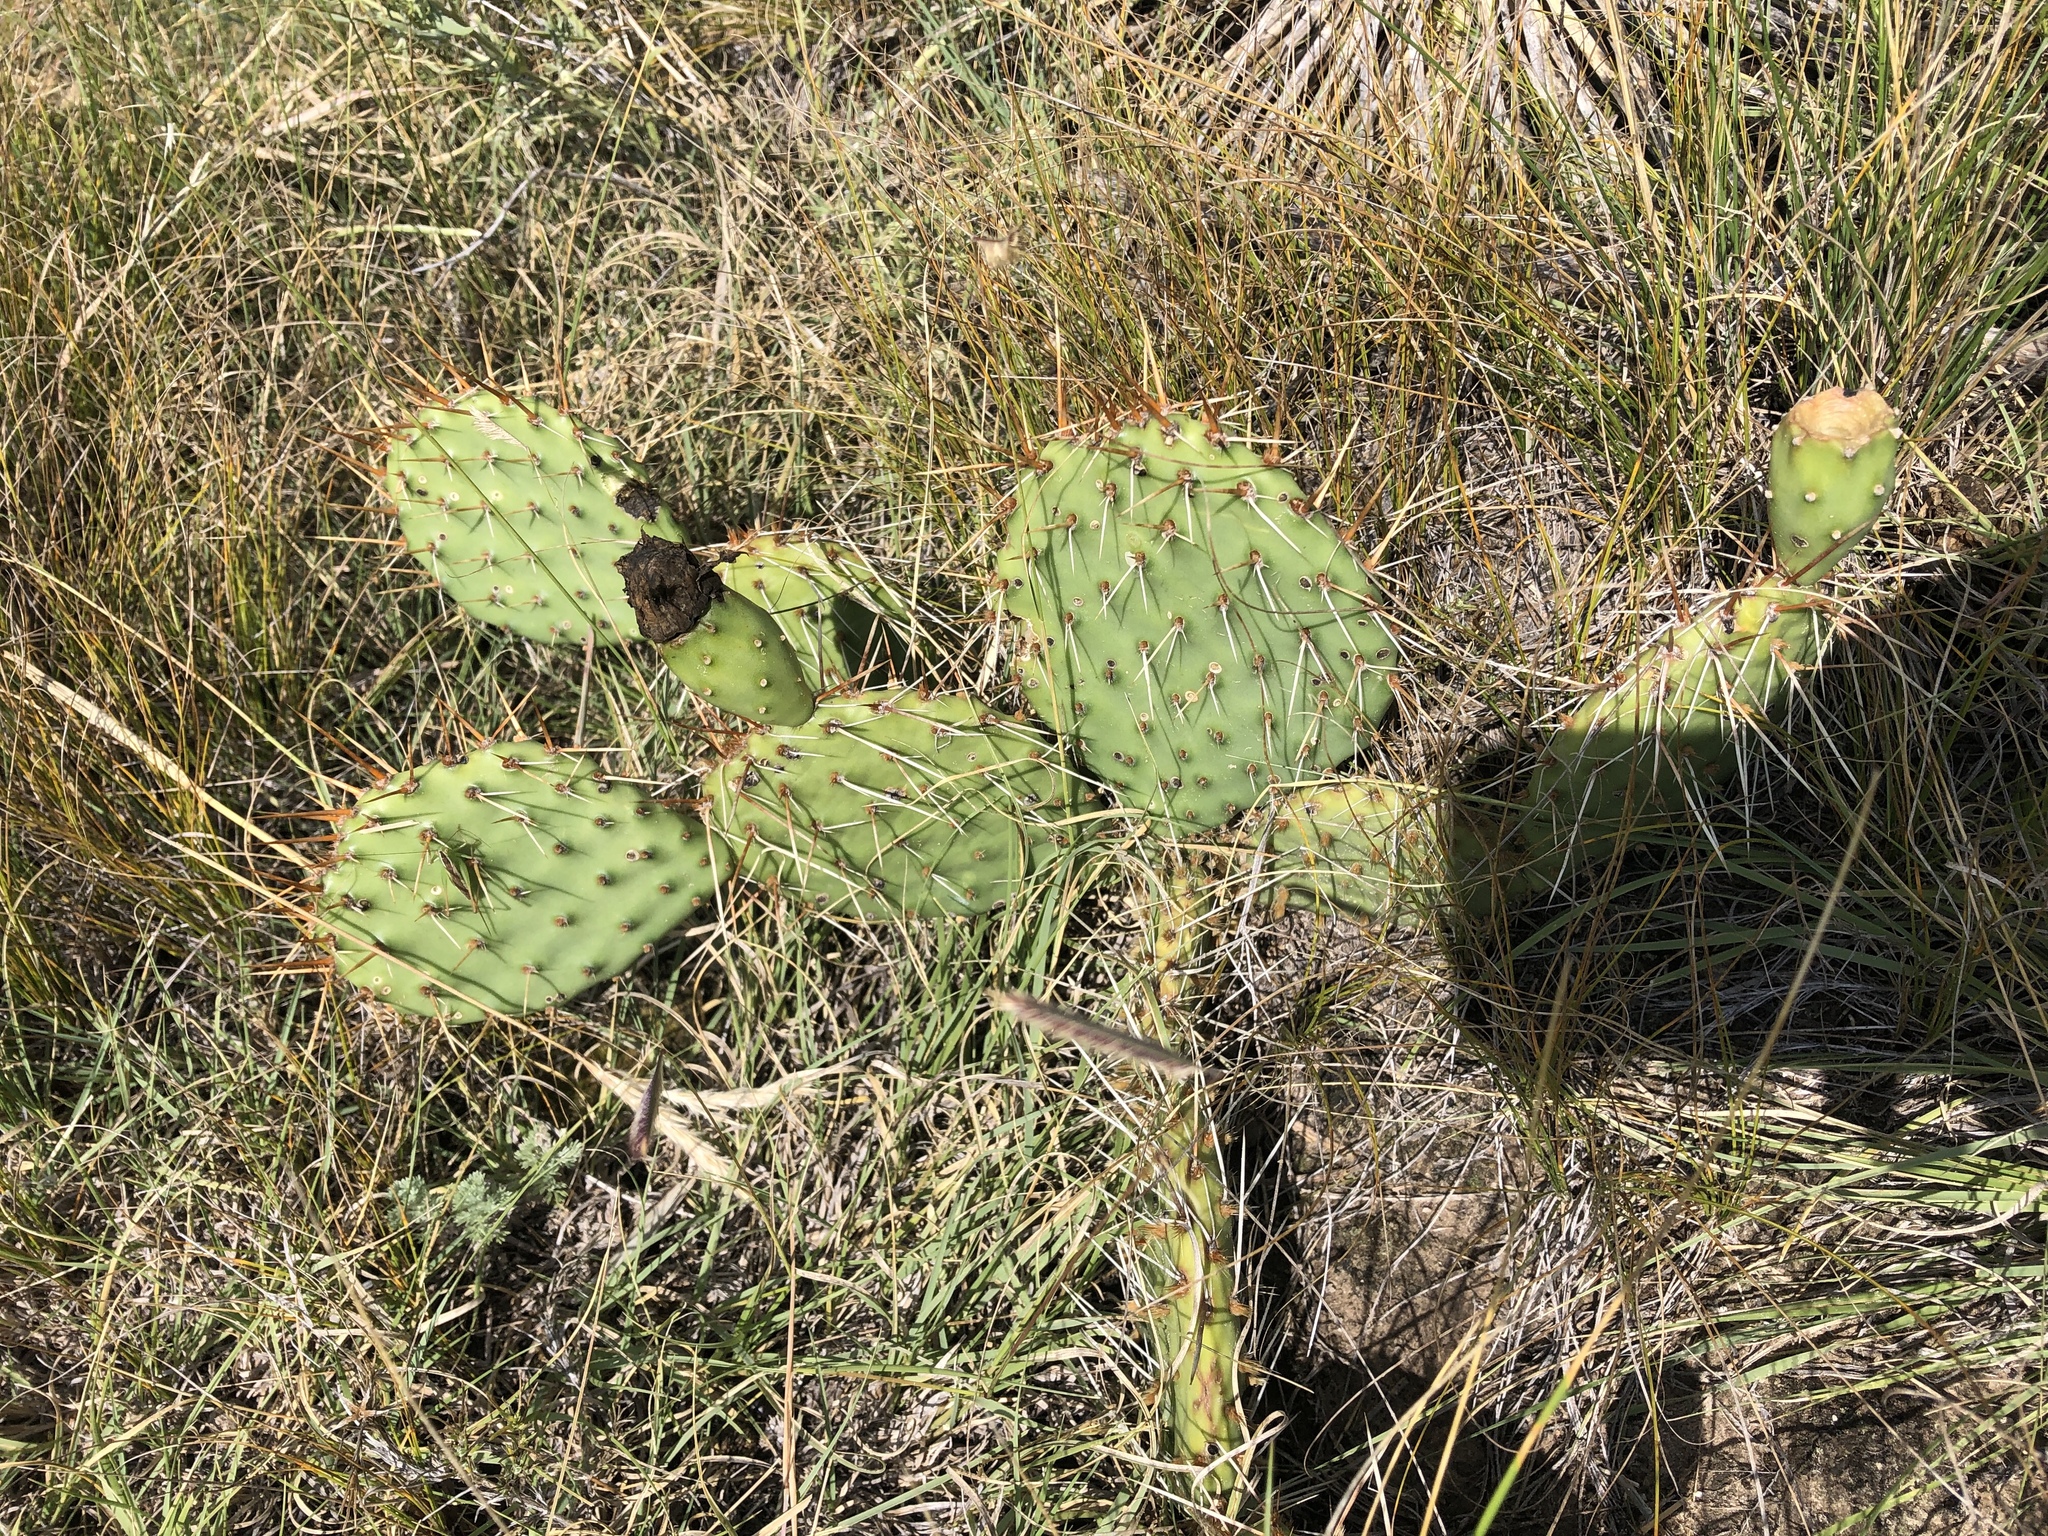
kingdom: Plantae
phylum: Tracheophyta
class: Magnoliopsida
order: Caryophyllales
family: Cactaceae
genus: Opuntia
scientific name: Opuntia cymochila
